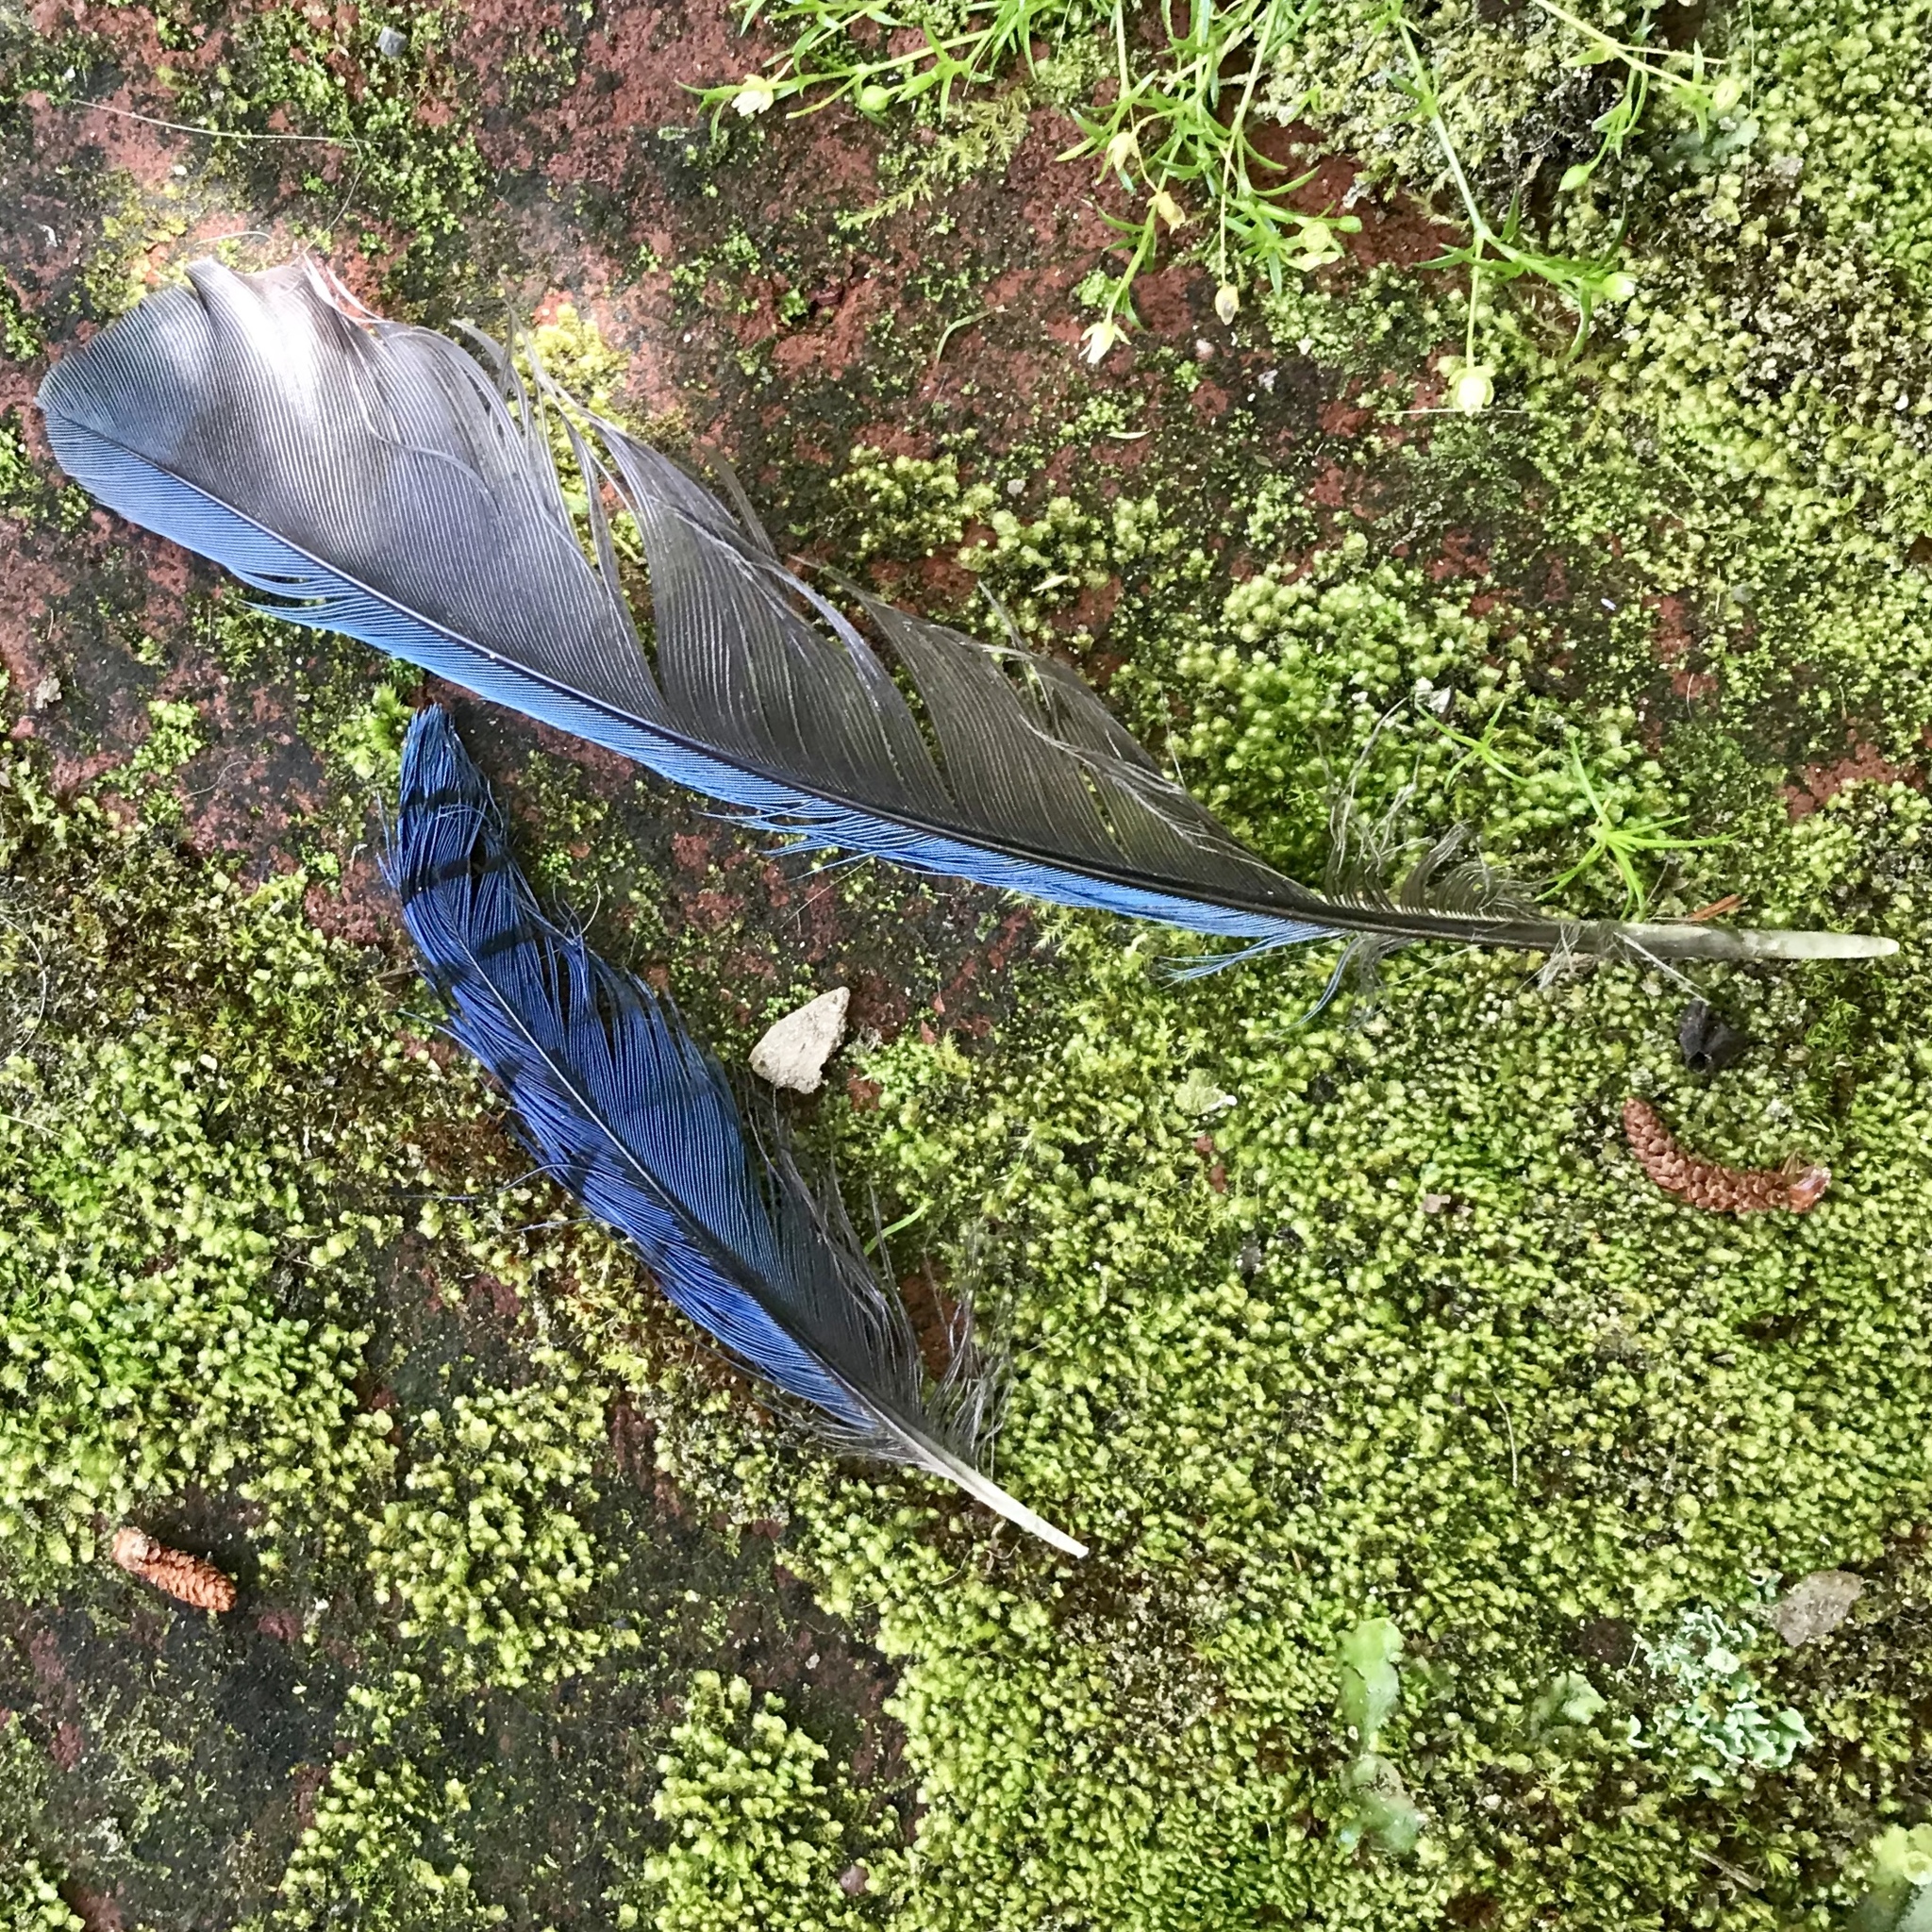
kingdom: Animalia
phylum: Chordata
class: Aves
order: Passeriformes
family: Corvidae
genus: Cyanocitta
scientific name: Cyanocitta stelleri
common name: Steller's jay
